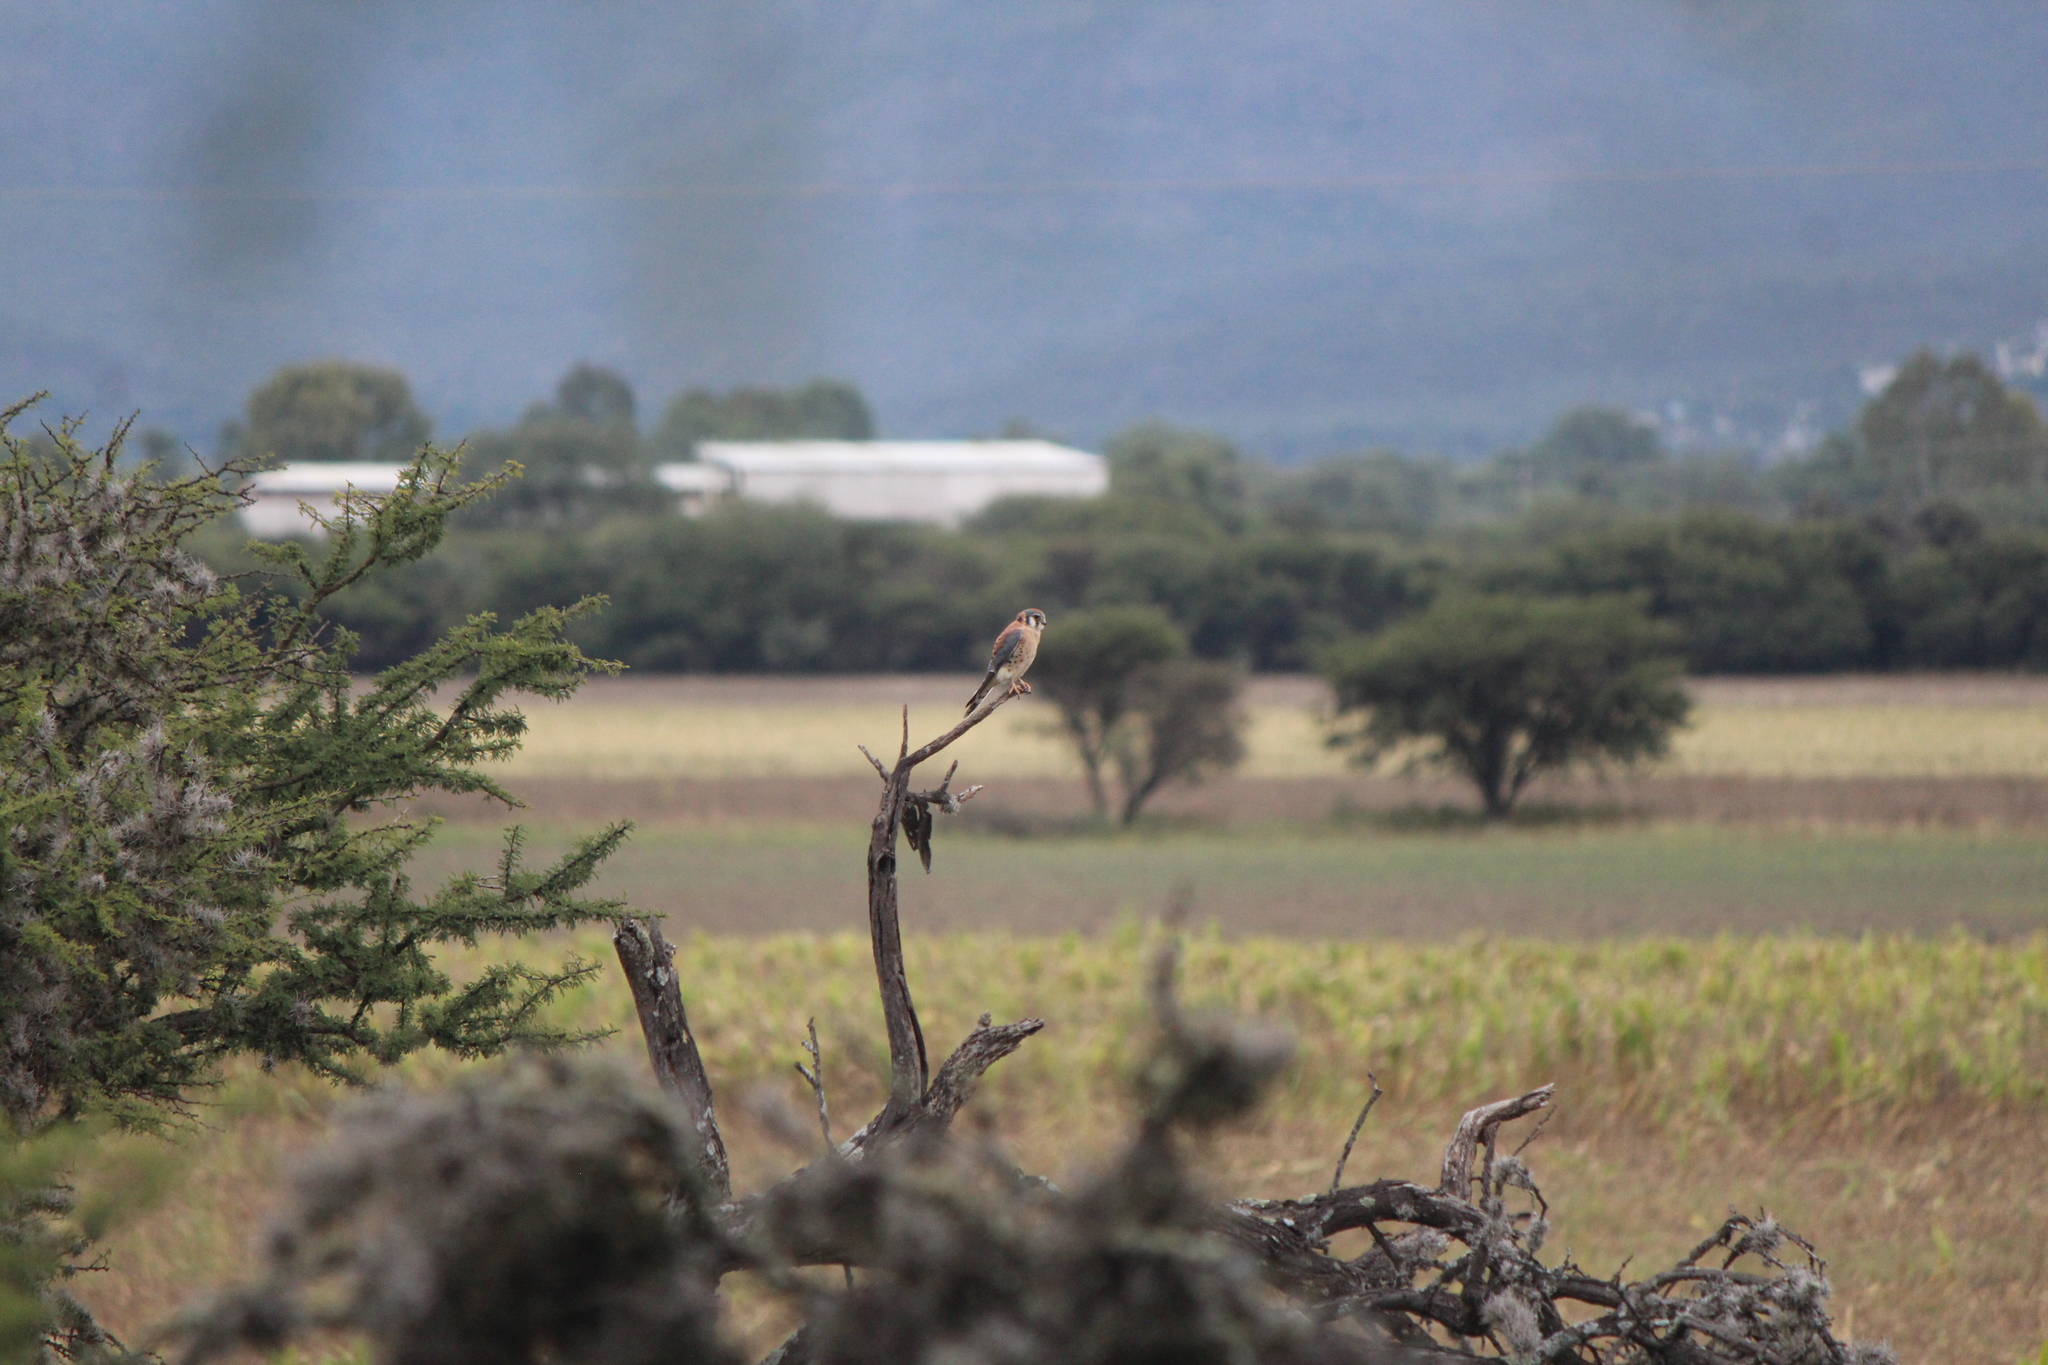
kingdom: Animalia
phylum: Chordata
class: Aves
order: Falconiformes
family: Falconidae
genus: Falco
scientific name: Falco sparverius
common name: American kestrel
